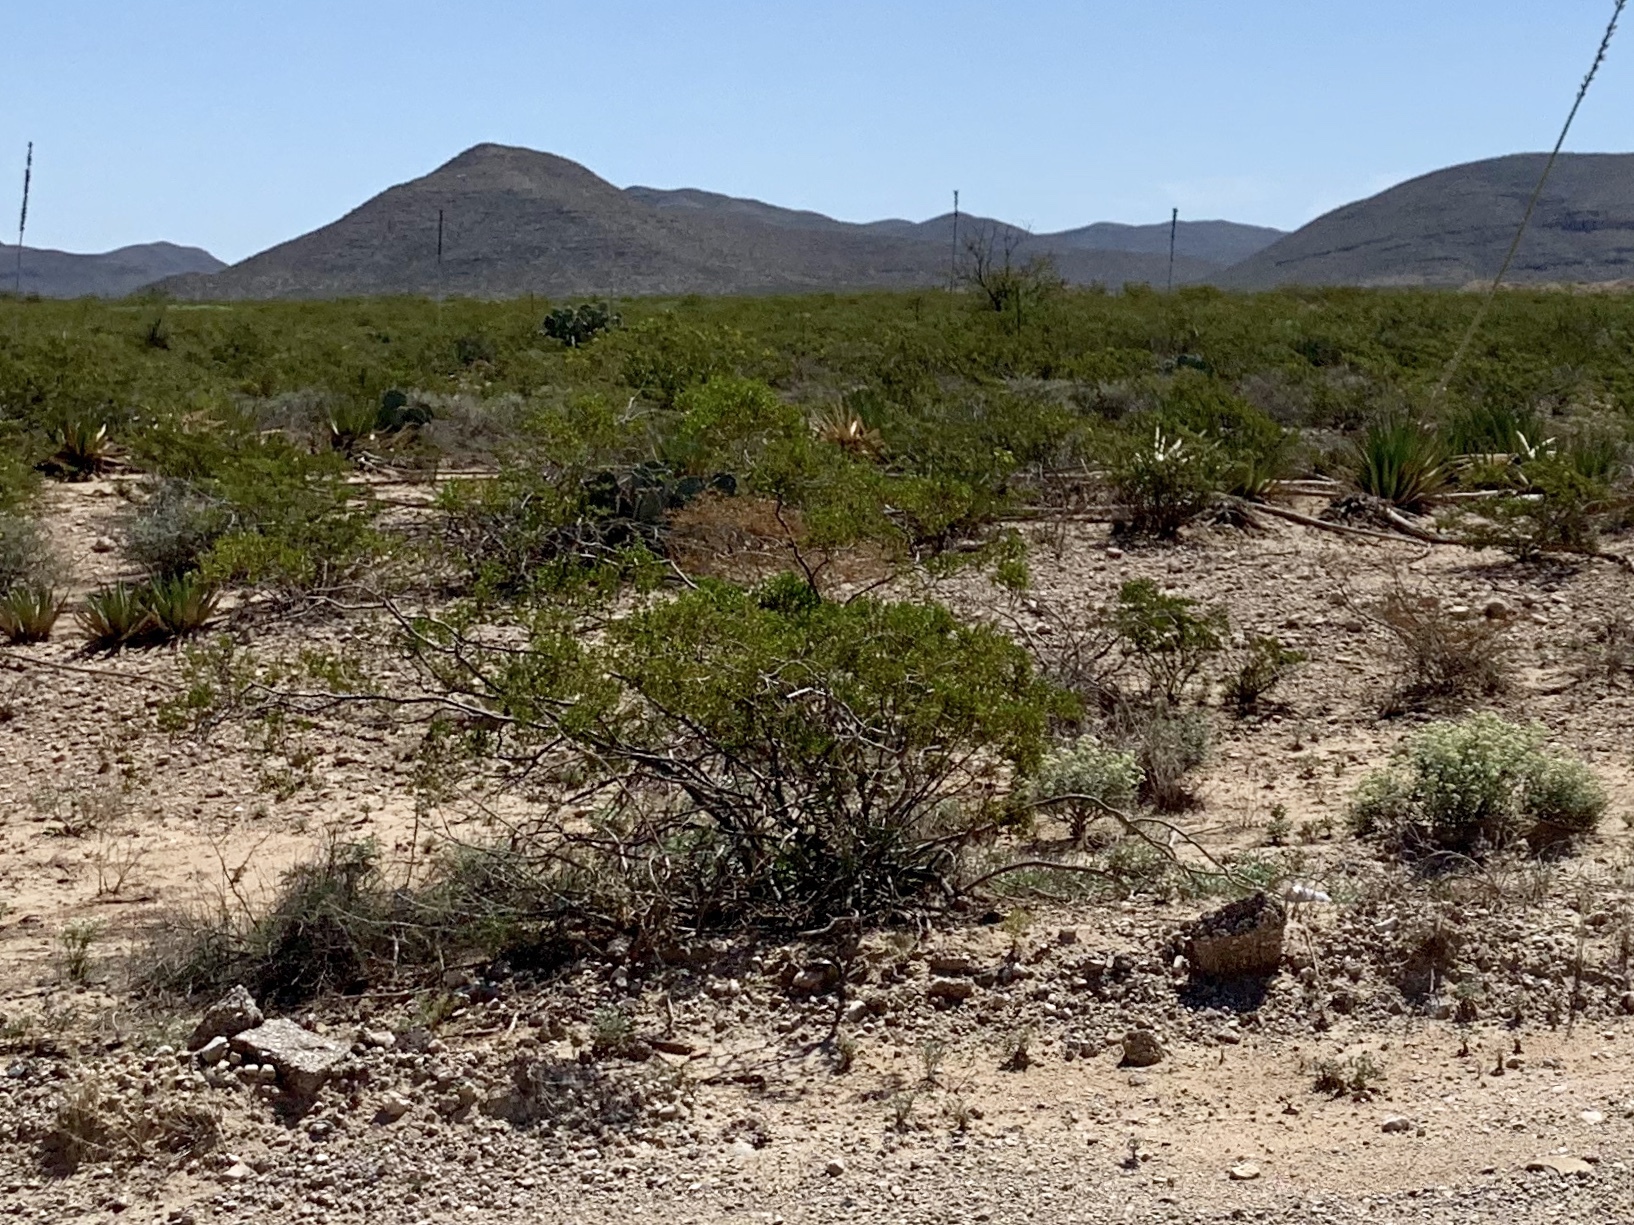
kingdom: Plantae
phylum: Tracheophyta
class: Magnoliopsida
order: Zygophyllales
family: Zygophyllaceae
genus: Larrea
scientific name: Larrea tridentata
